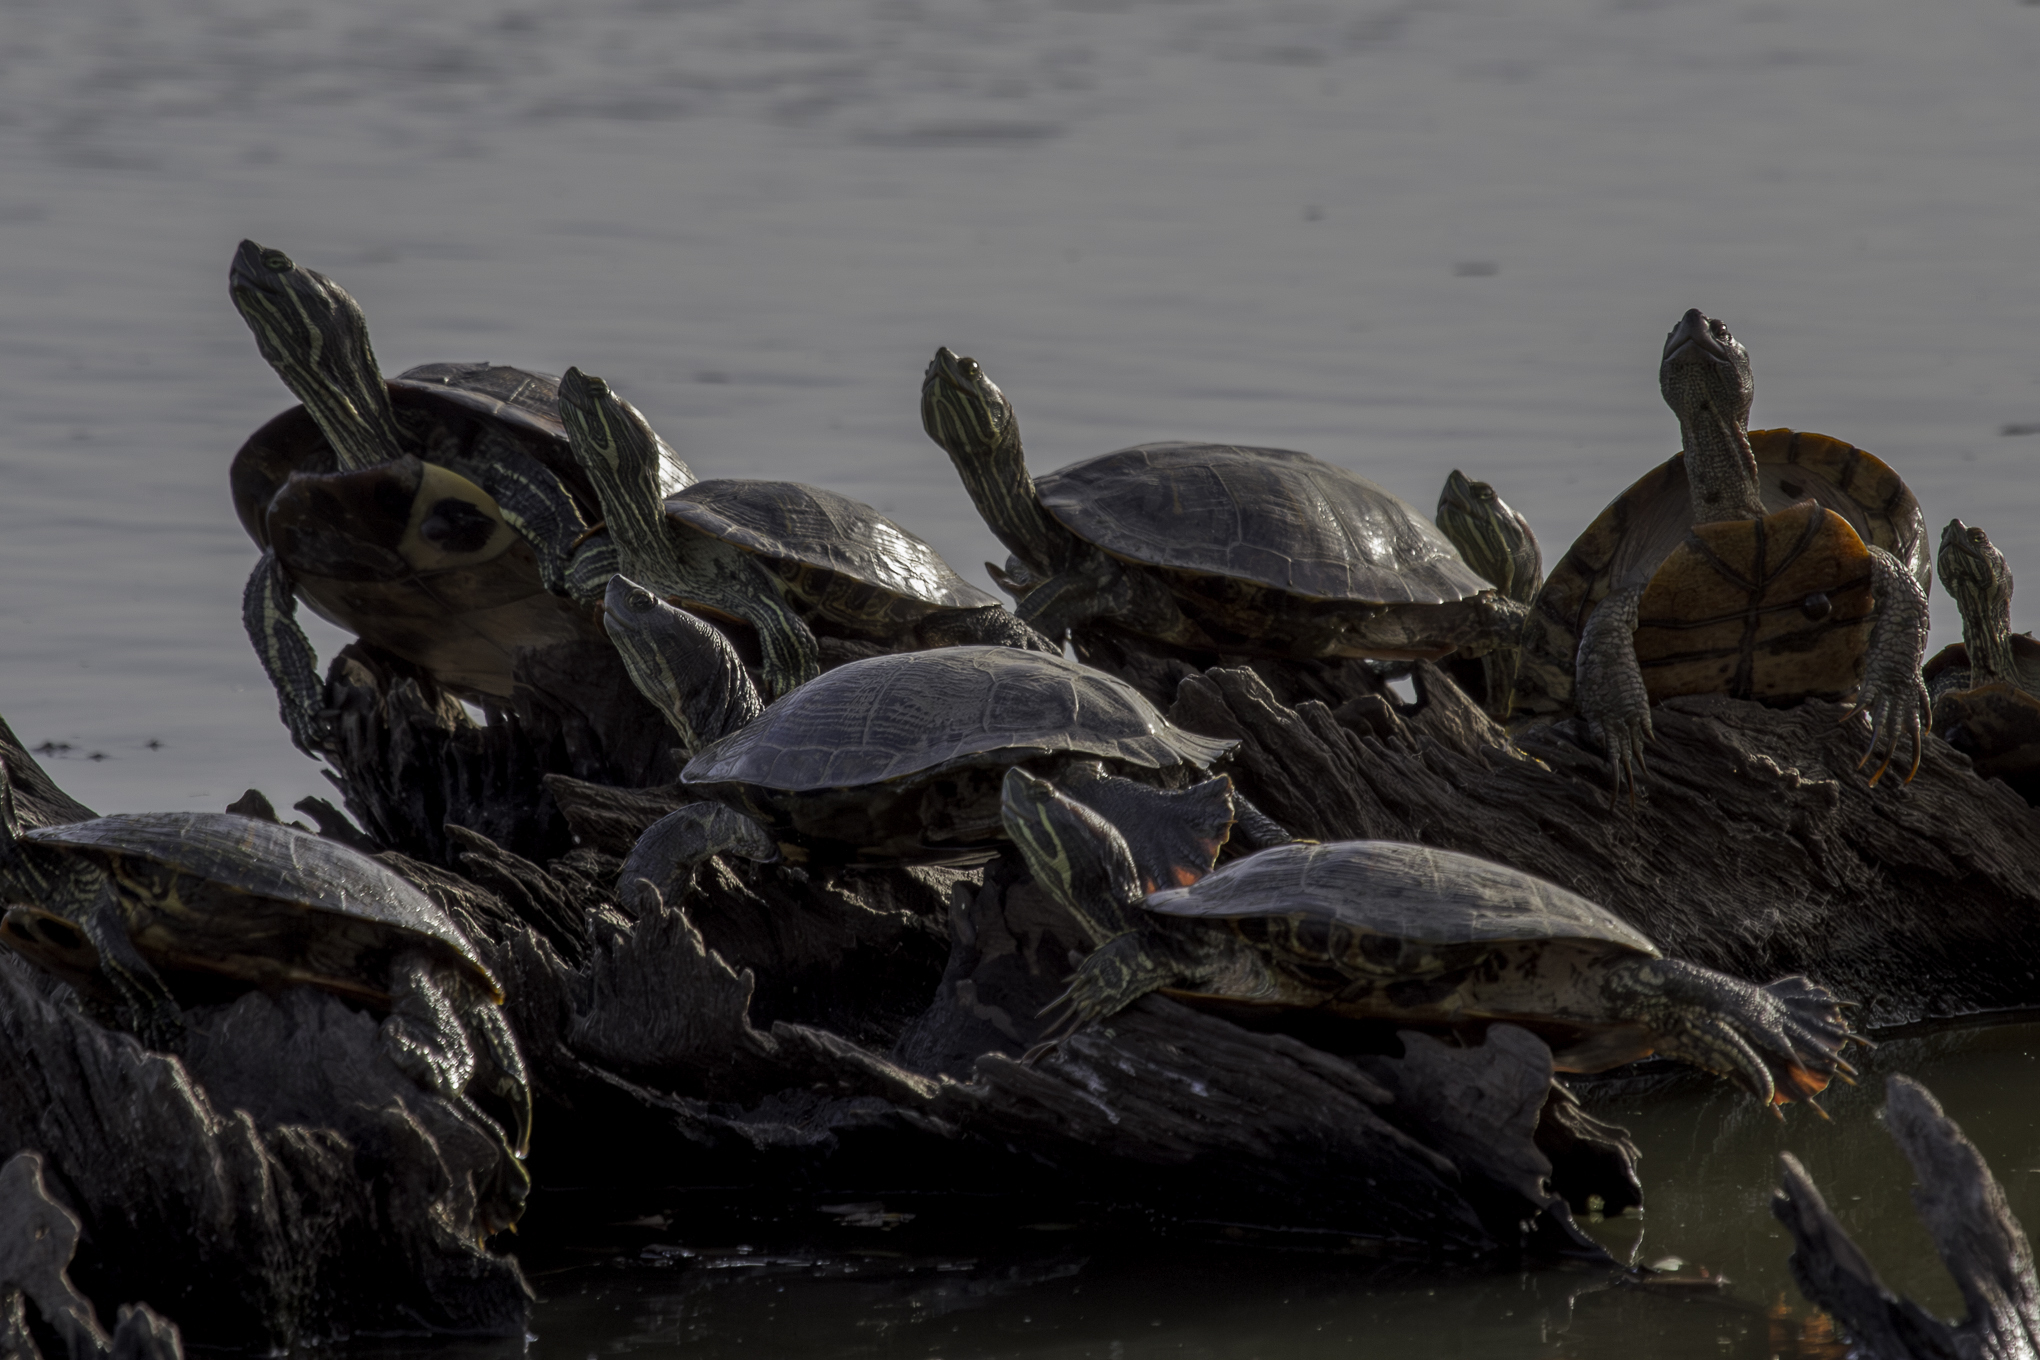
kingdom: Animalia
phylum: Chordata
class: Testudines
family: Emydidae
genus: Trachemys
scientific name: Trachemys scripta
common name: Slider
